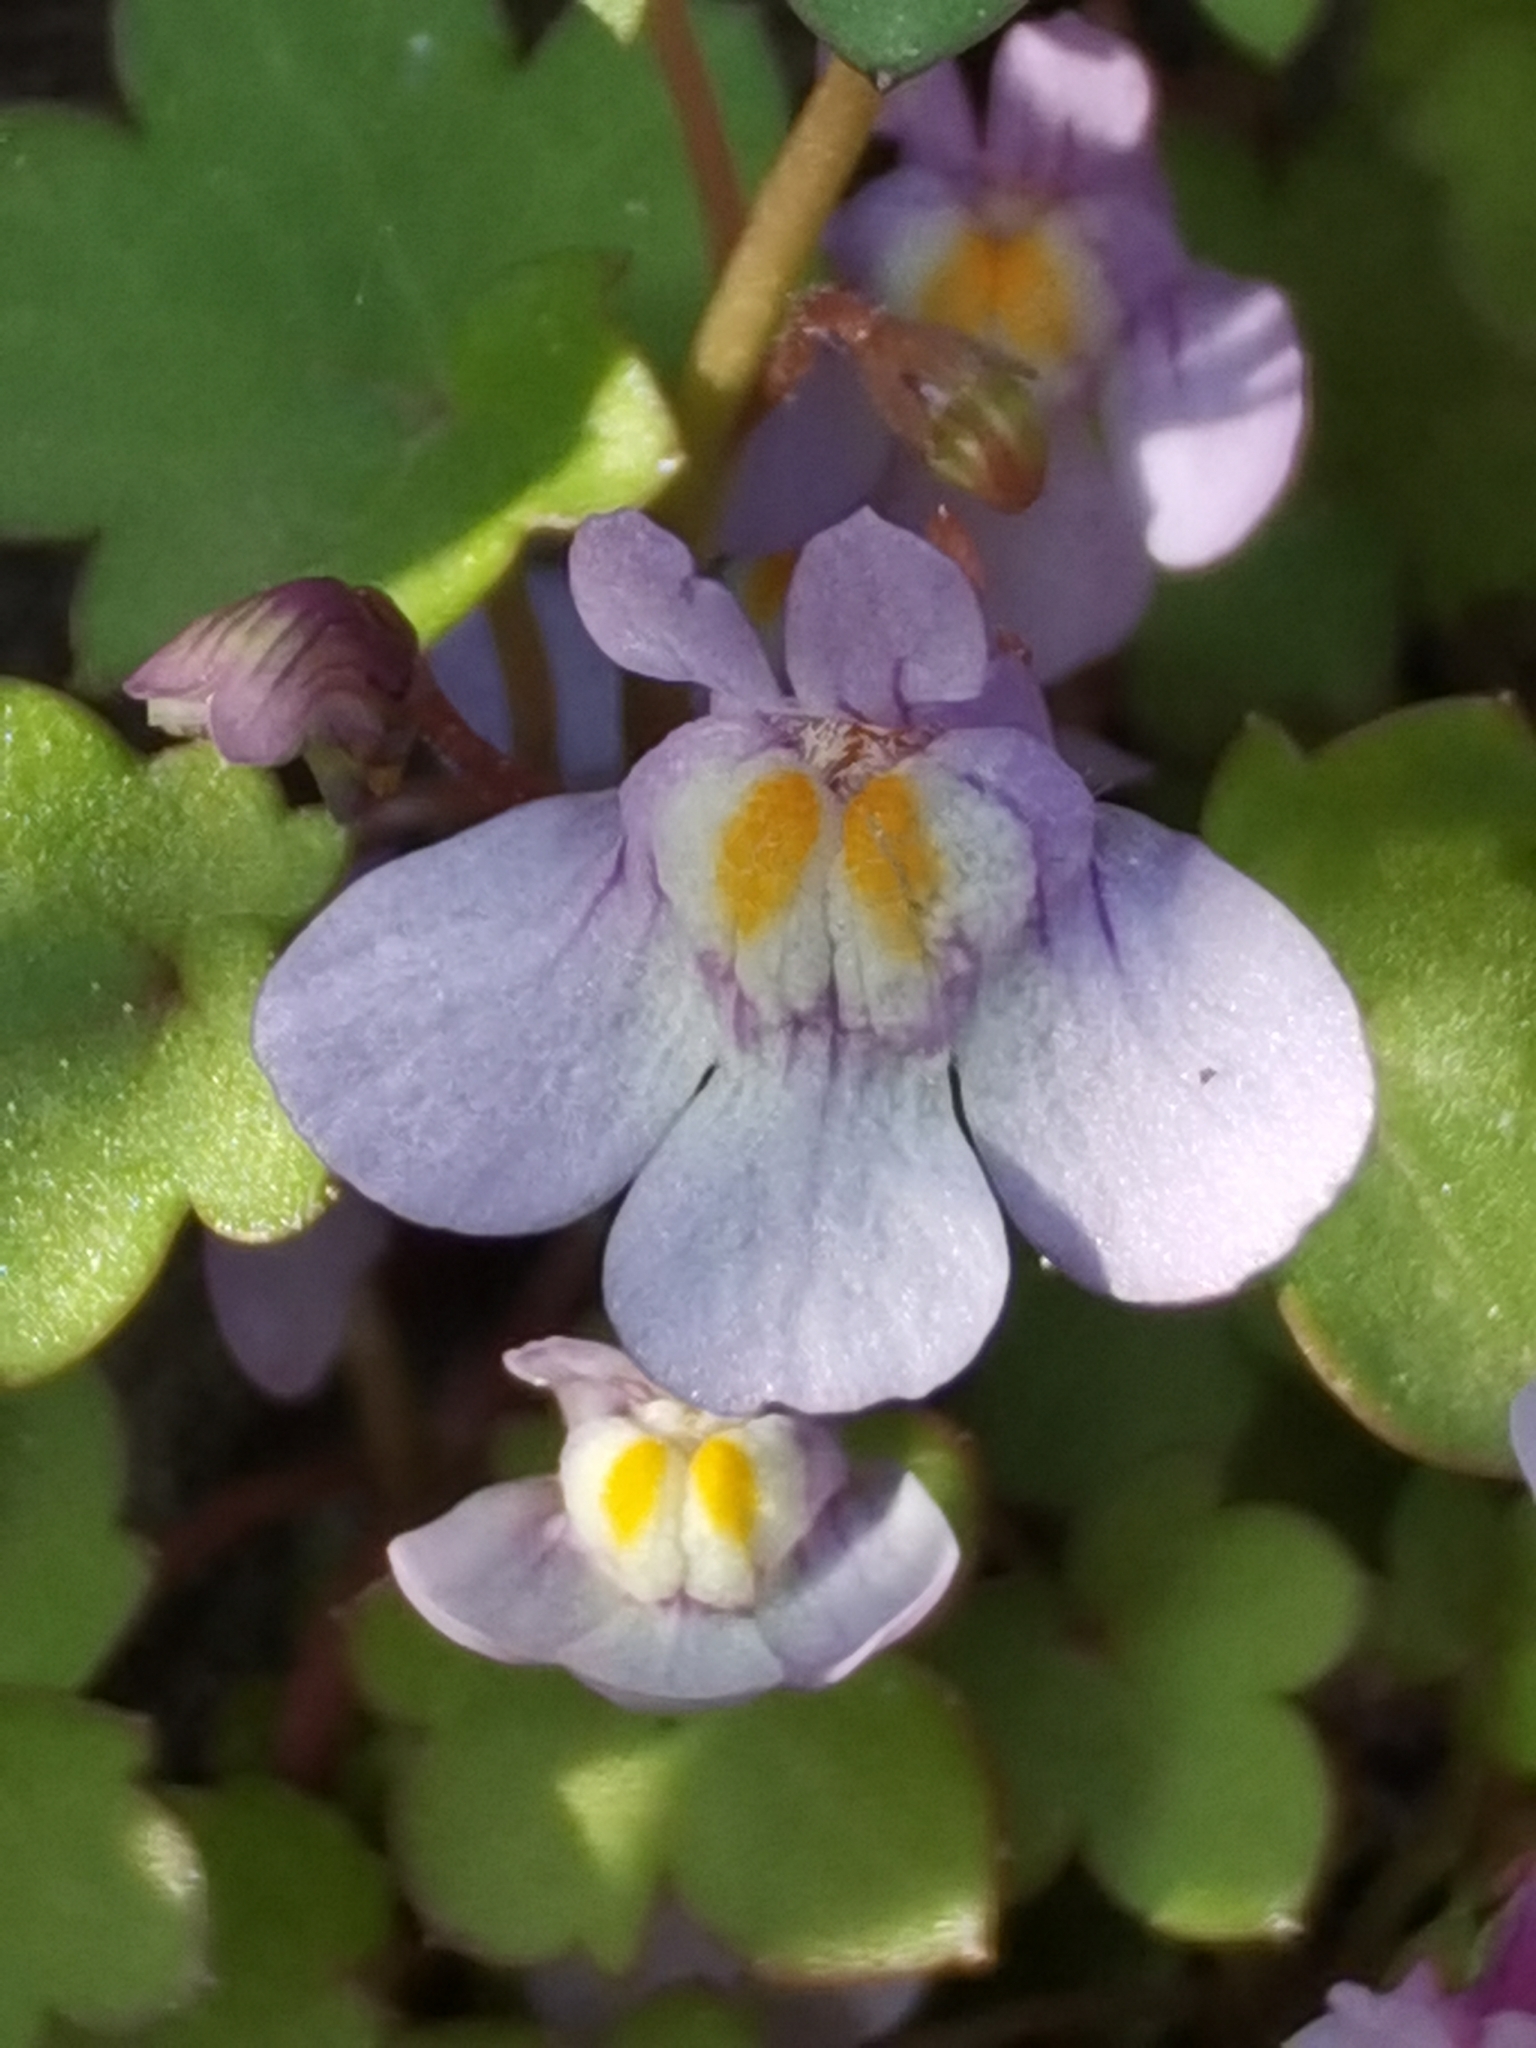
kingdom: Plantae
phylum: Tracheophyta
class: Magnoliopsida
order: Lamiales
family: Plantaginaceae
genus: Cymbalaria
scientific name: Cymbalaria muralis
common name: Ivy-leaved toadflax
